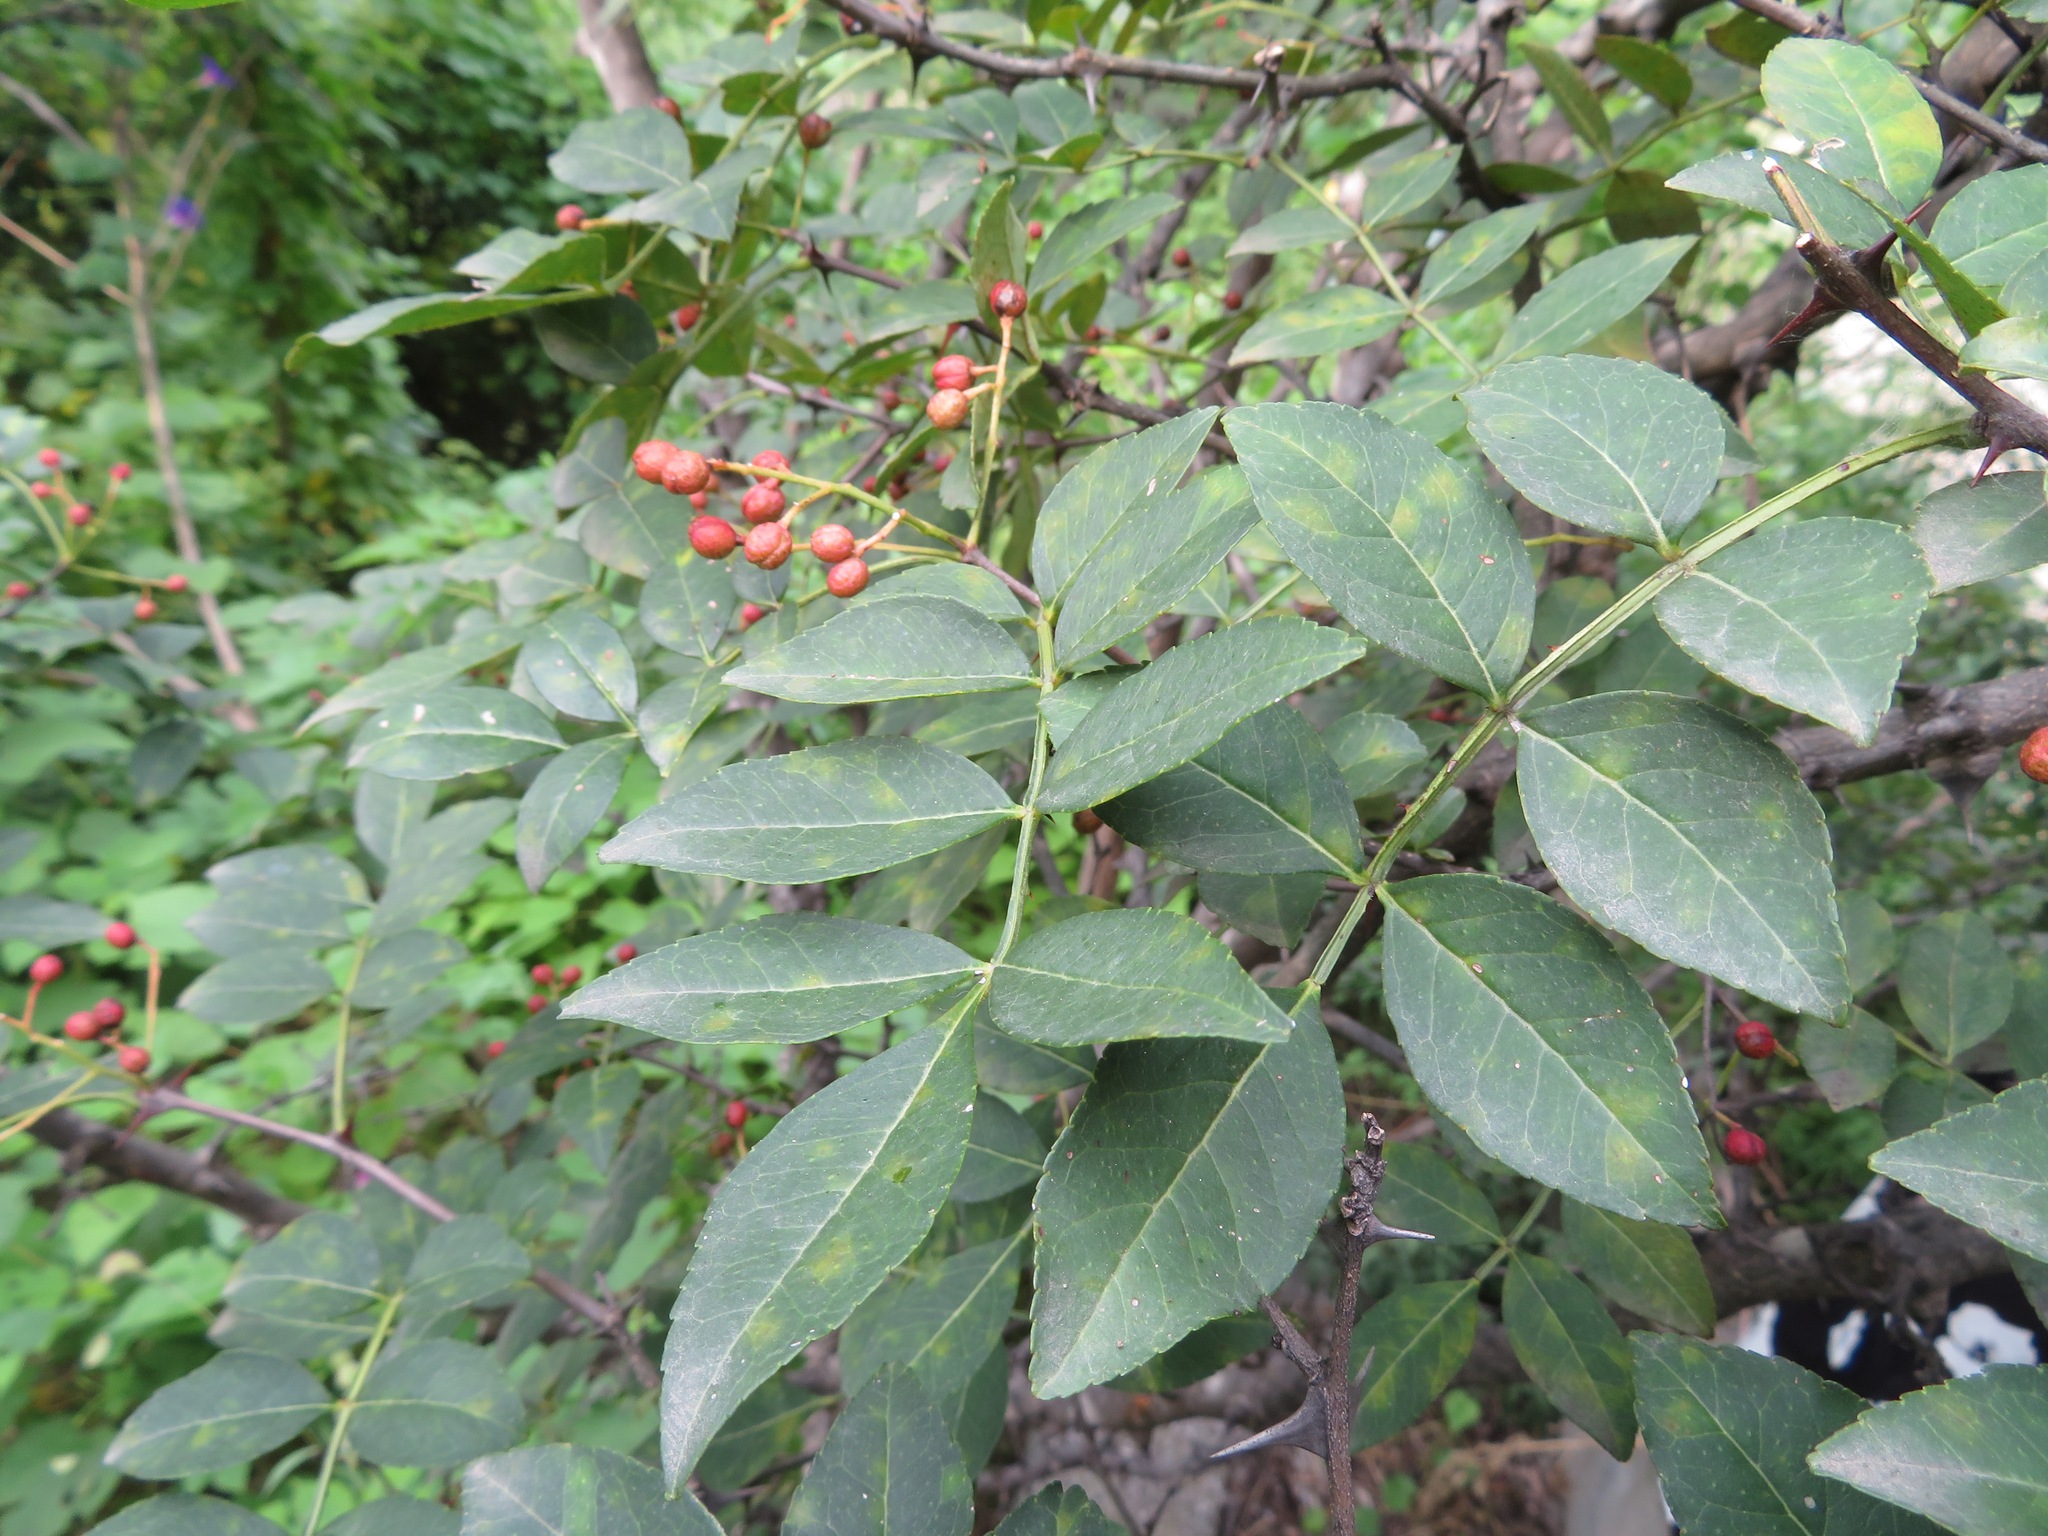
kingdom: Plantae
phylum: Tracheophyta
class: Magnoliopsida
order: Sapindales
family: Rutaceae
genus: Zanthoxylum
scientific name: Zanthoxylum bungeanum
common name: Sichuan-pepper
